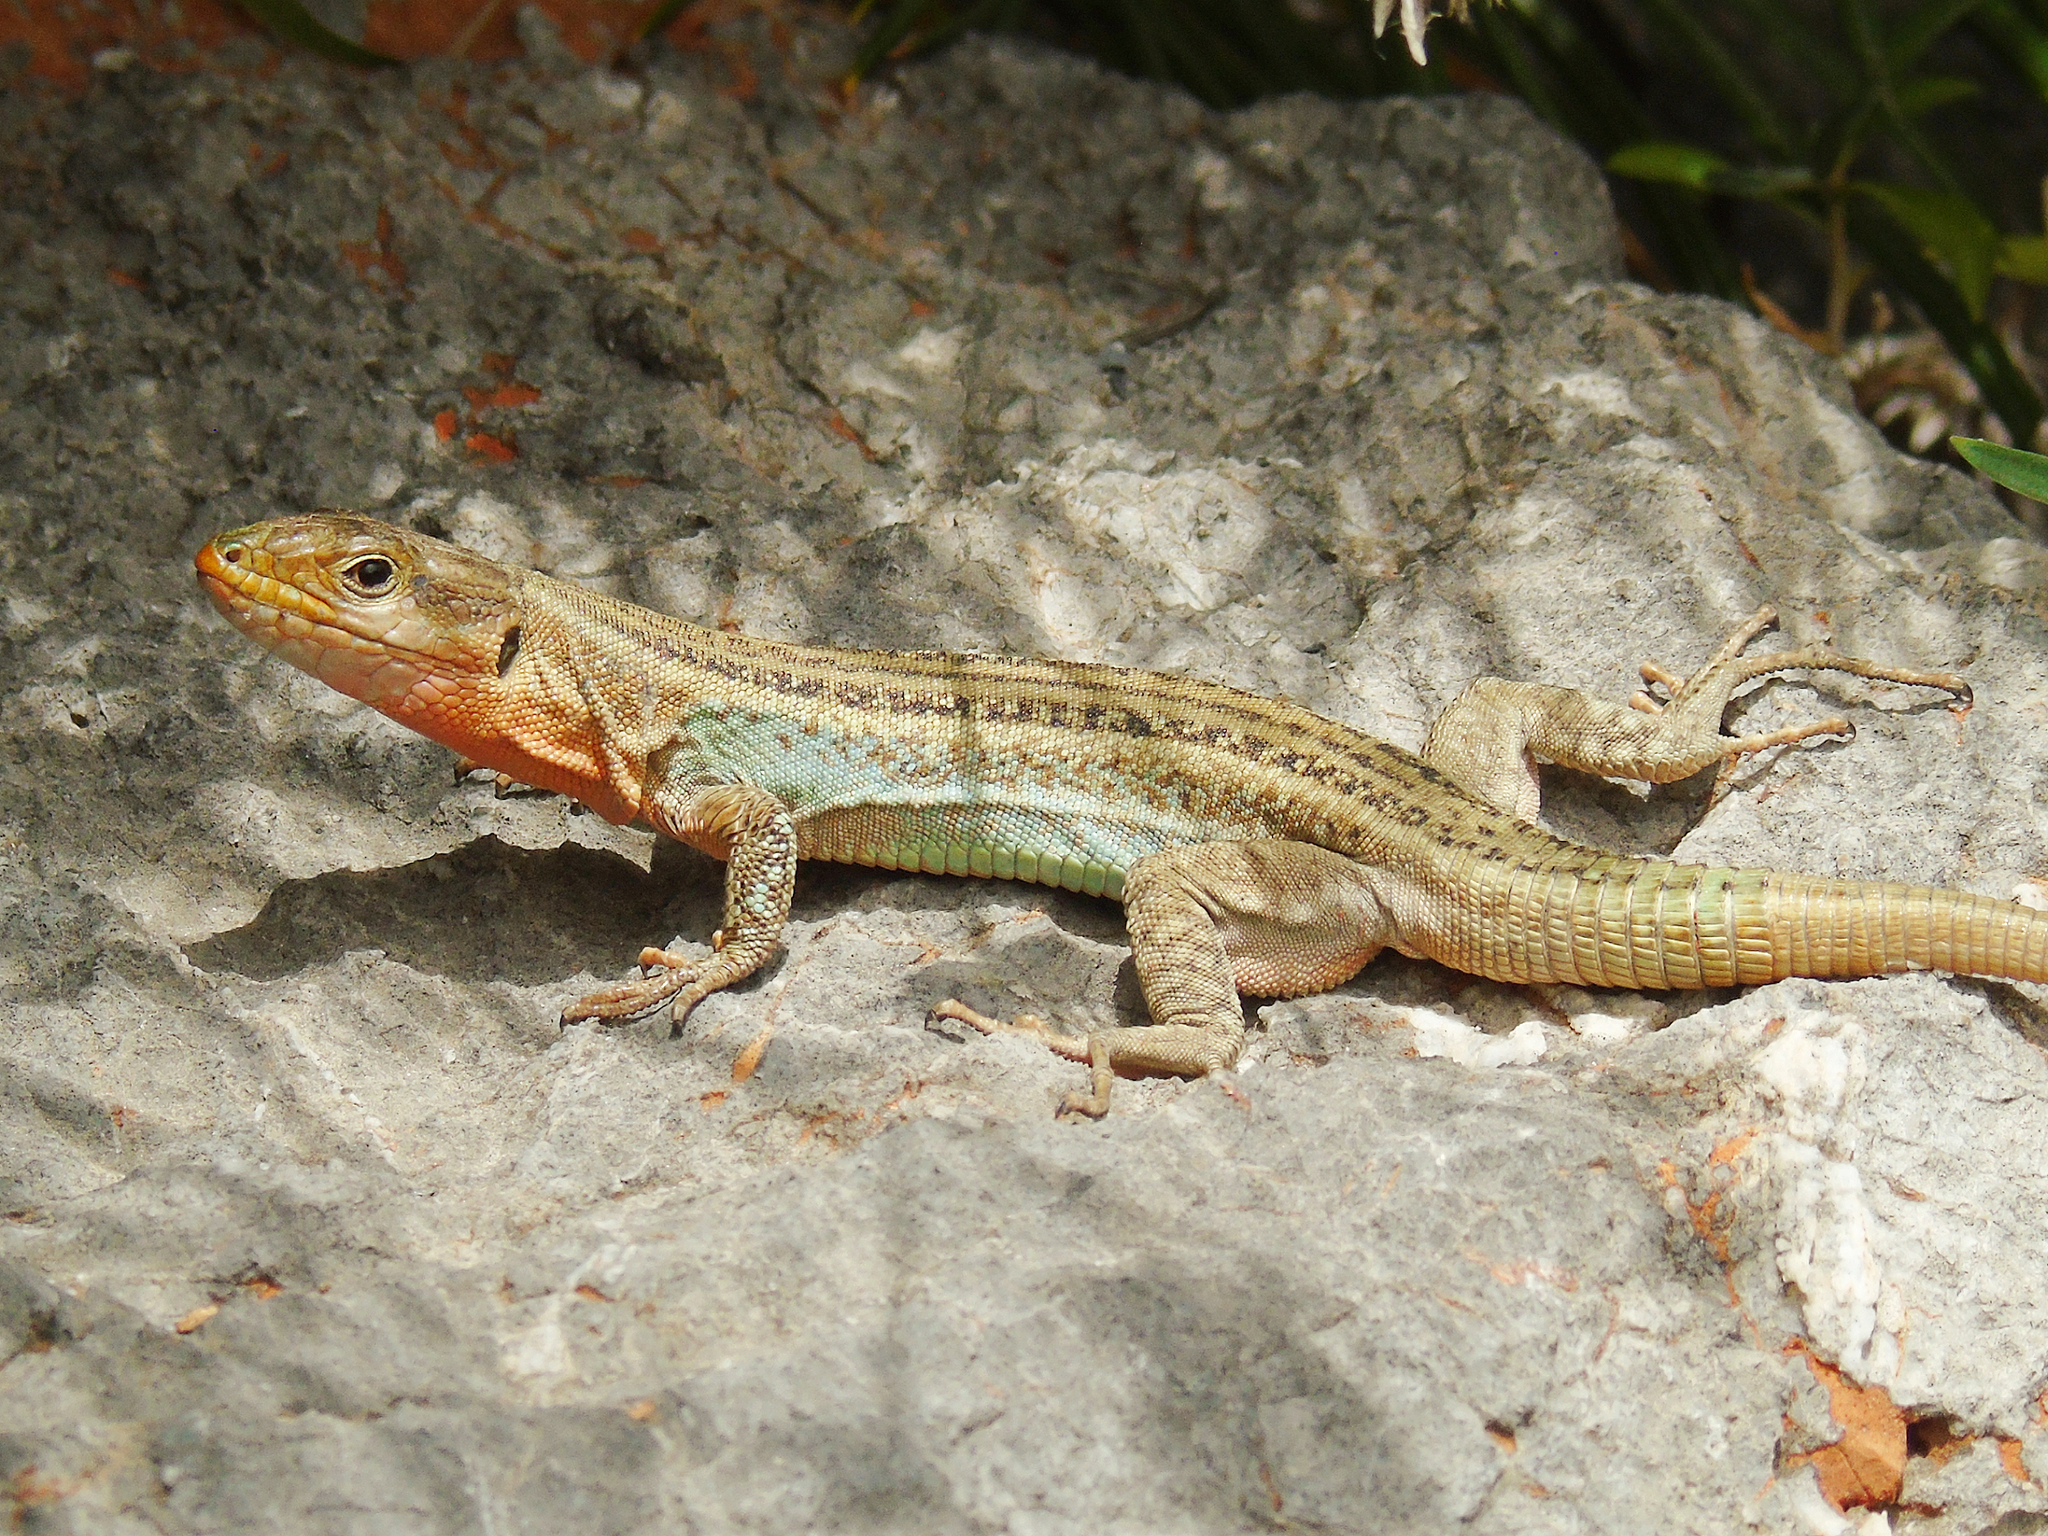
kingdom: Animalia
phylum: Chordata
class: Squamata
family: Lacertidae
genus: Podarcis
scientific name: Podarcis peloponnesiacus
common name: Peloponnese wall lizard
